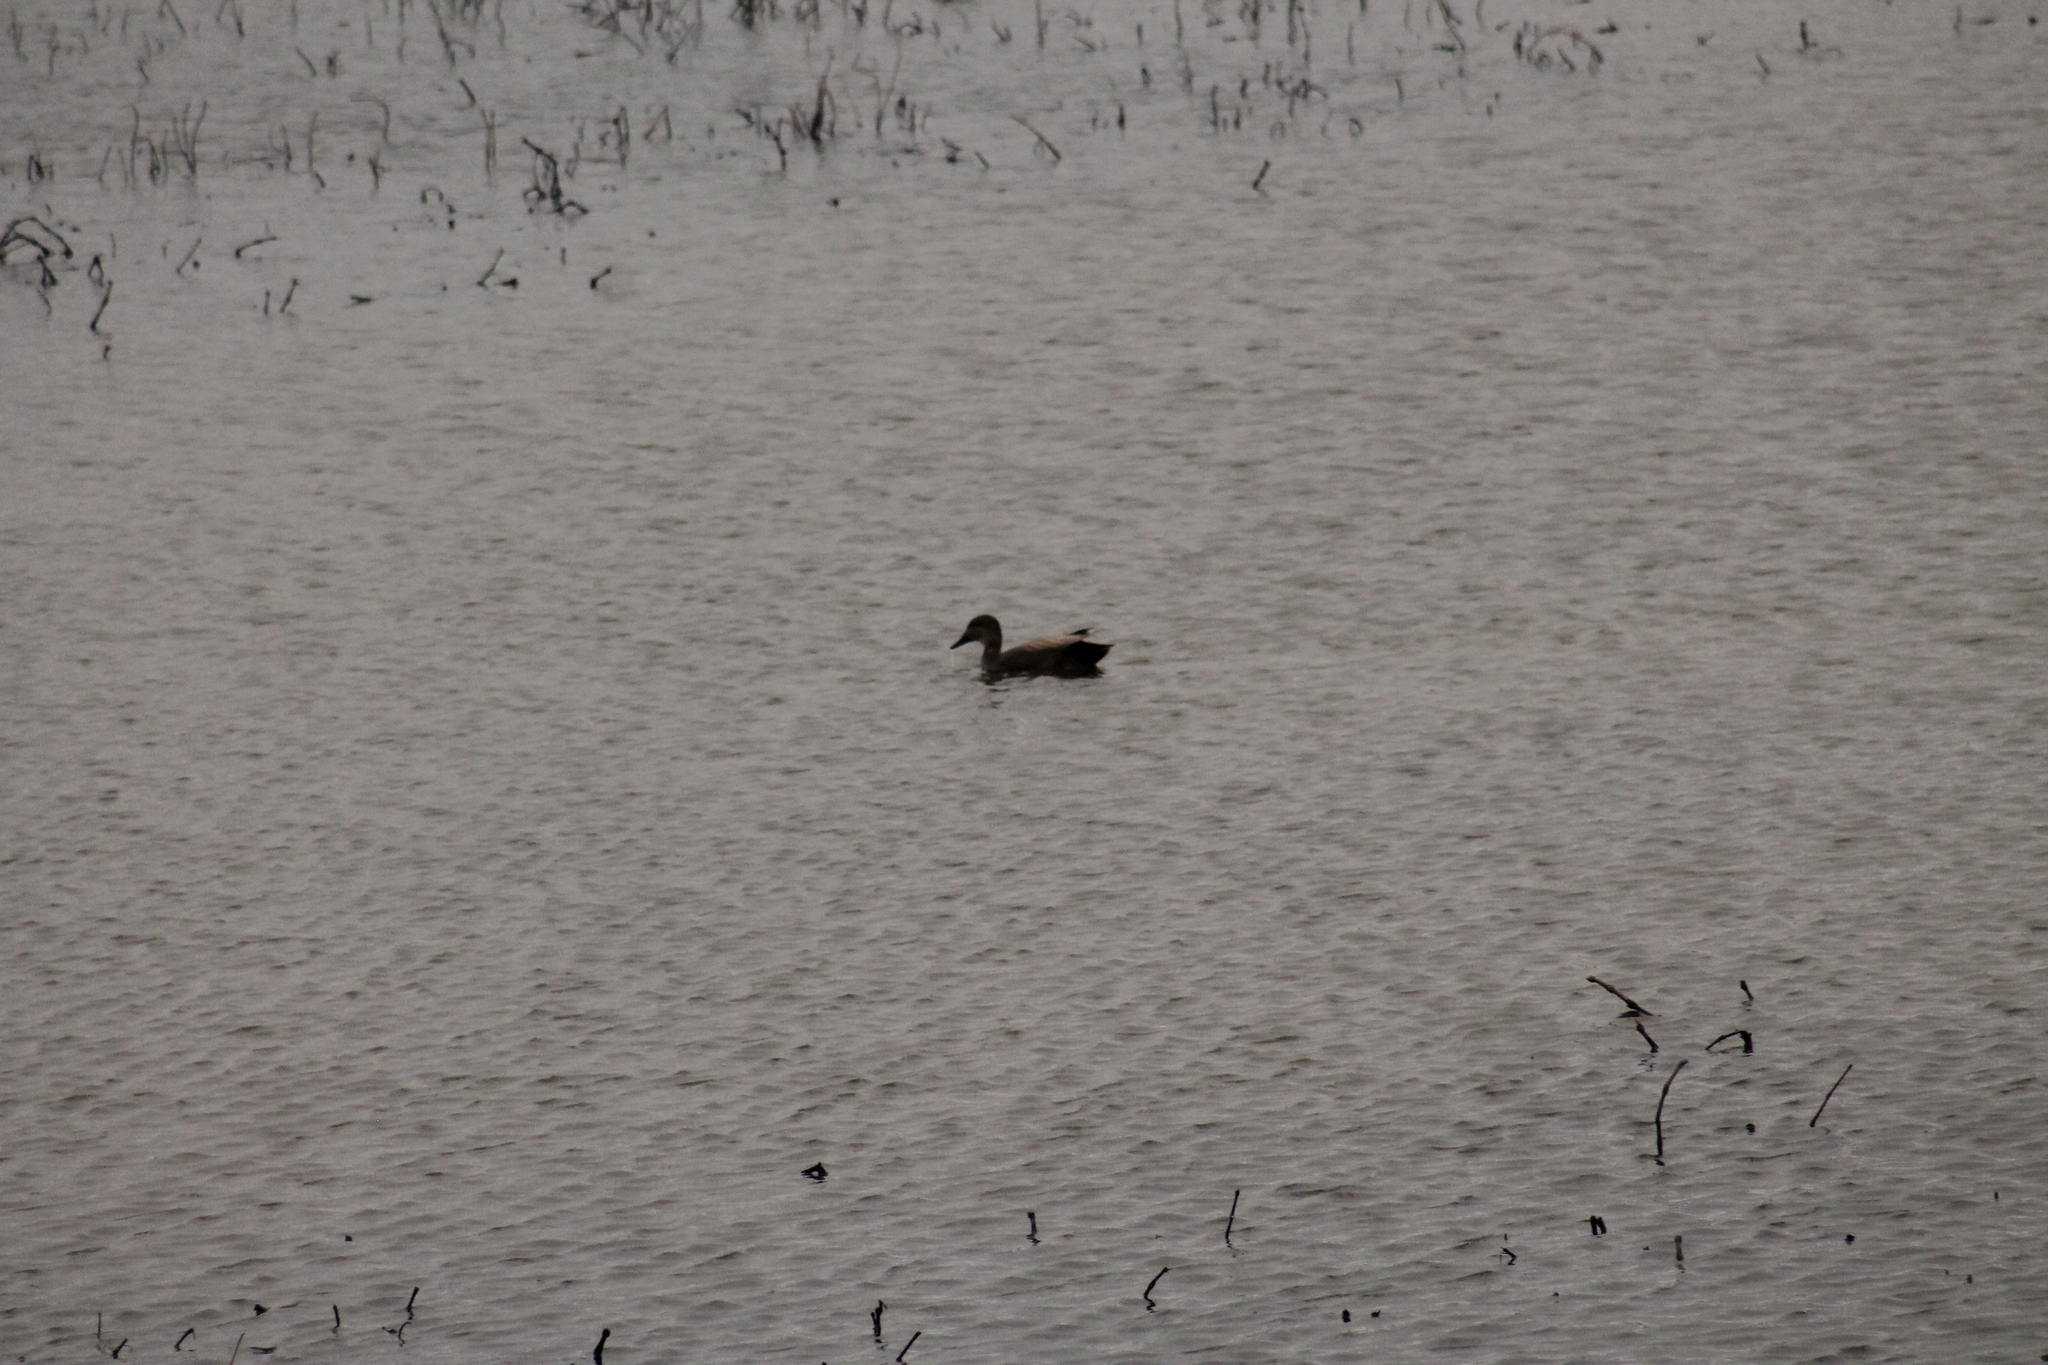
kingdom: Animalia
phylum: Chordata
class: Aves
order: Anseriformes
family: Anatidae
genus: Mareca
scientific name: Mareca strepera
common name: Gadwall
